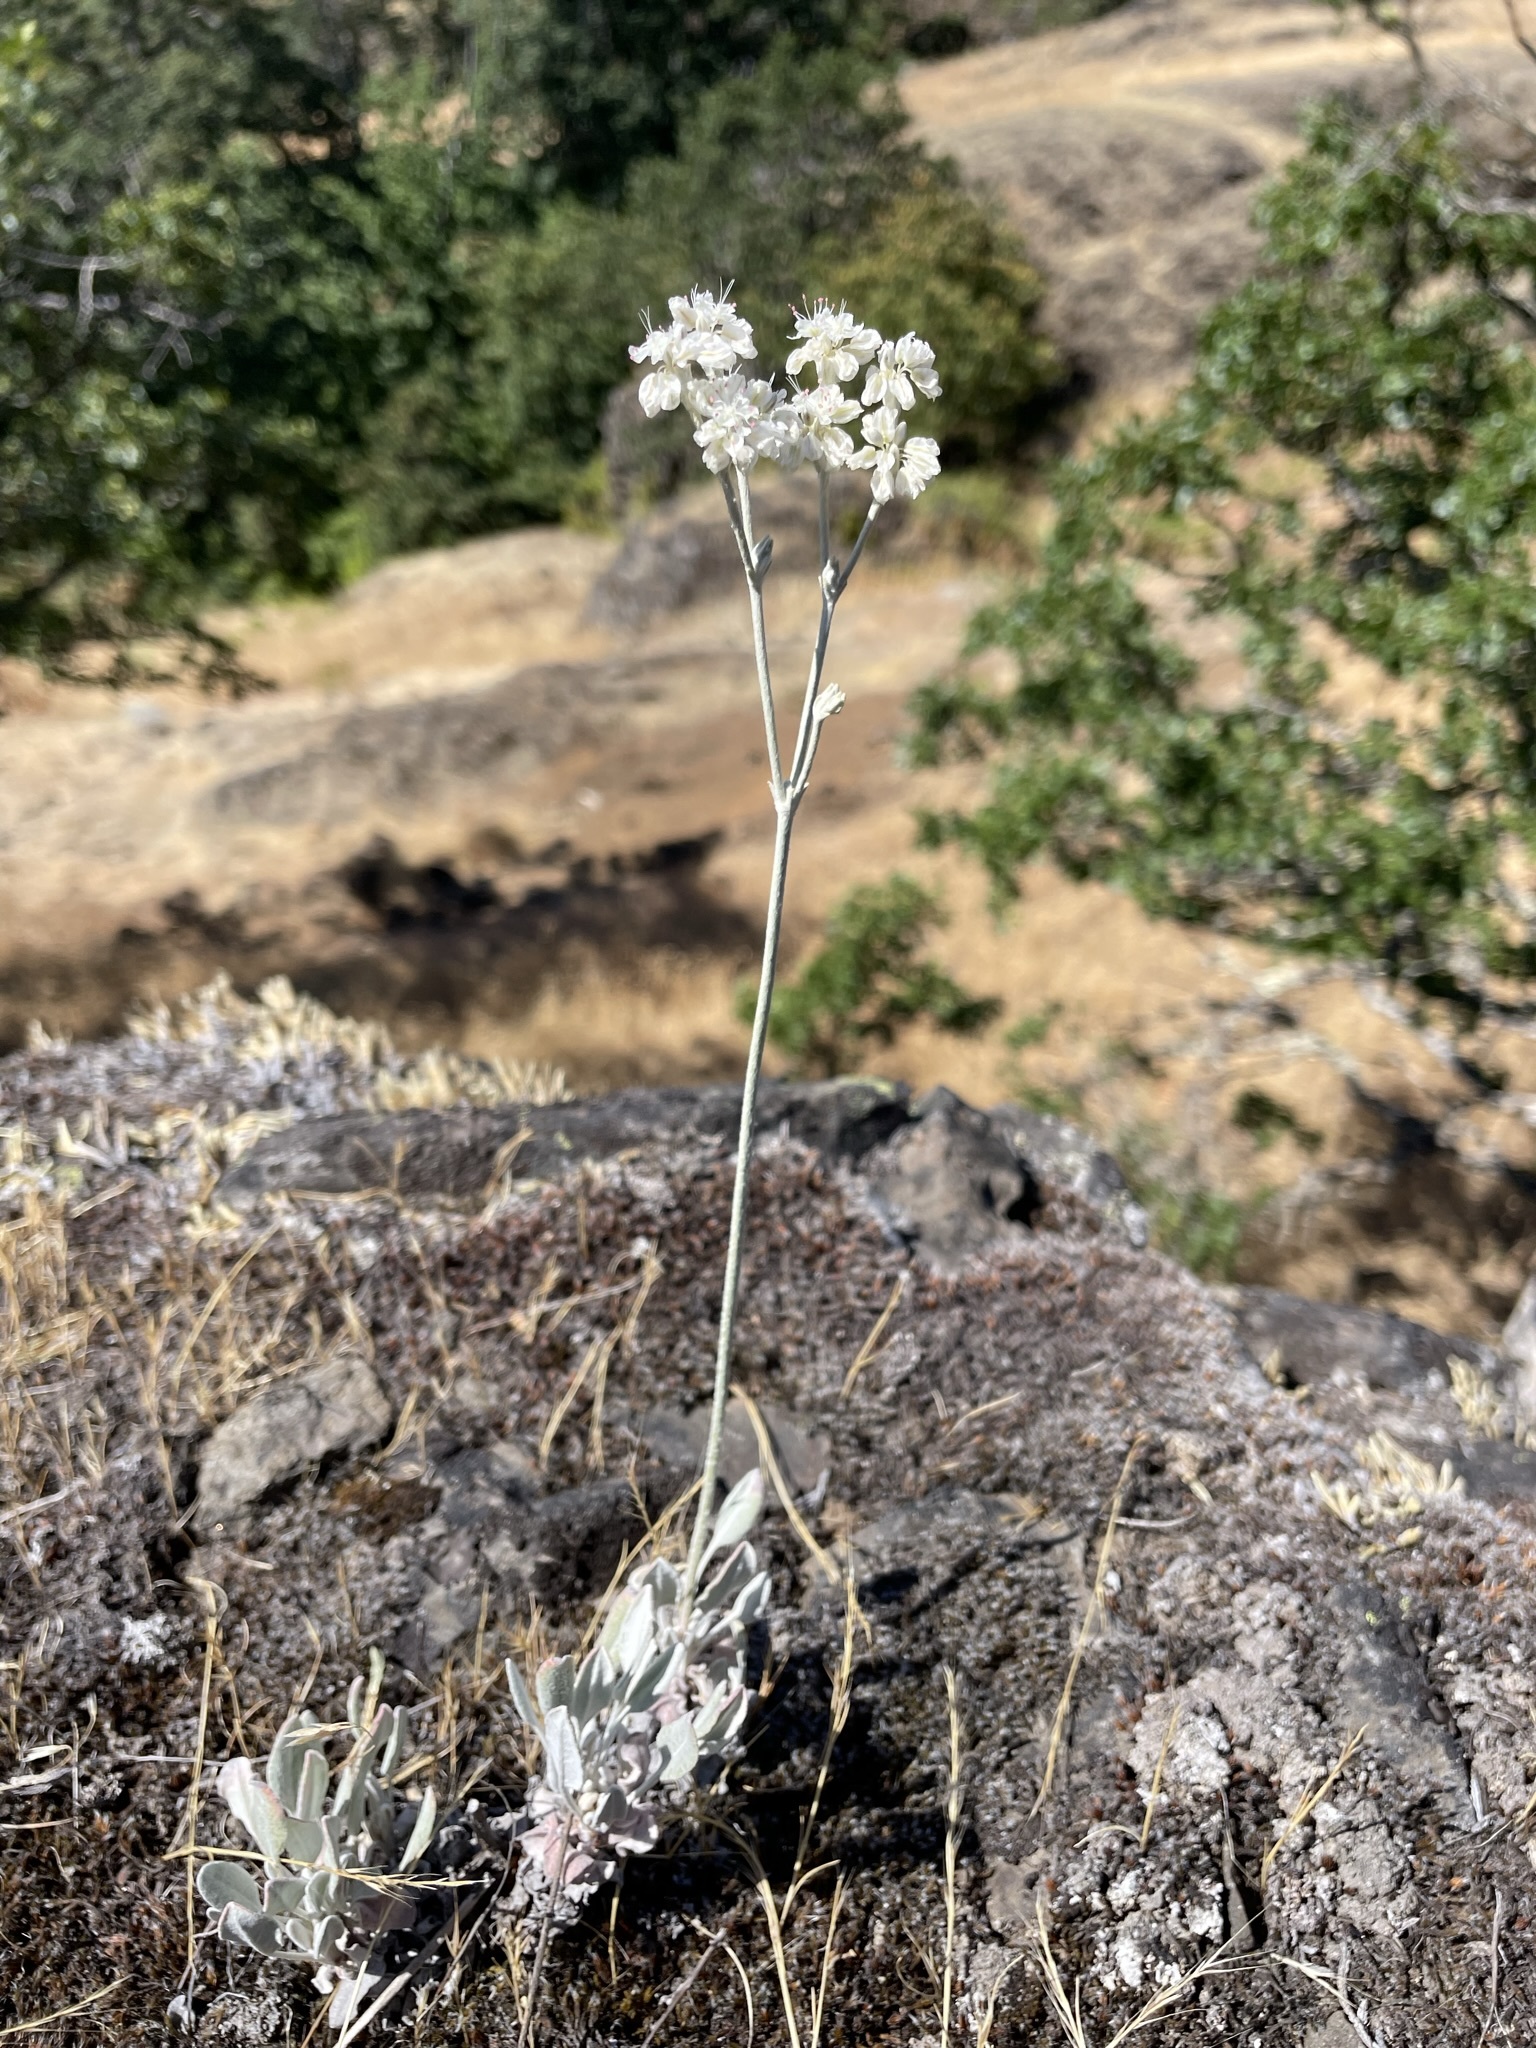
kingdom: Plantae
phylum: Tracheophyta
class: Magnoliopsida
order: Caryophyllales
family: Polygonaceae
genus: Eriogonum
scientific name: Eriogonum niveum
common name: Snow wild buckwheat
